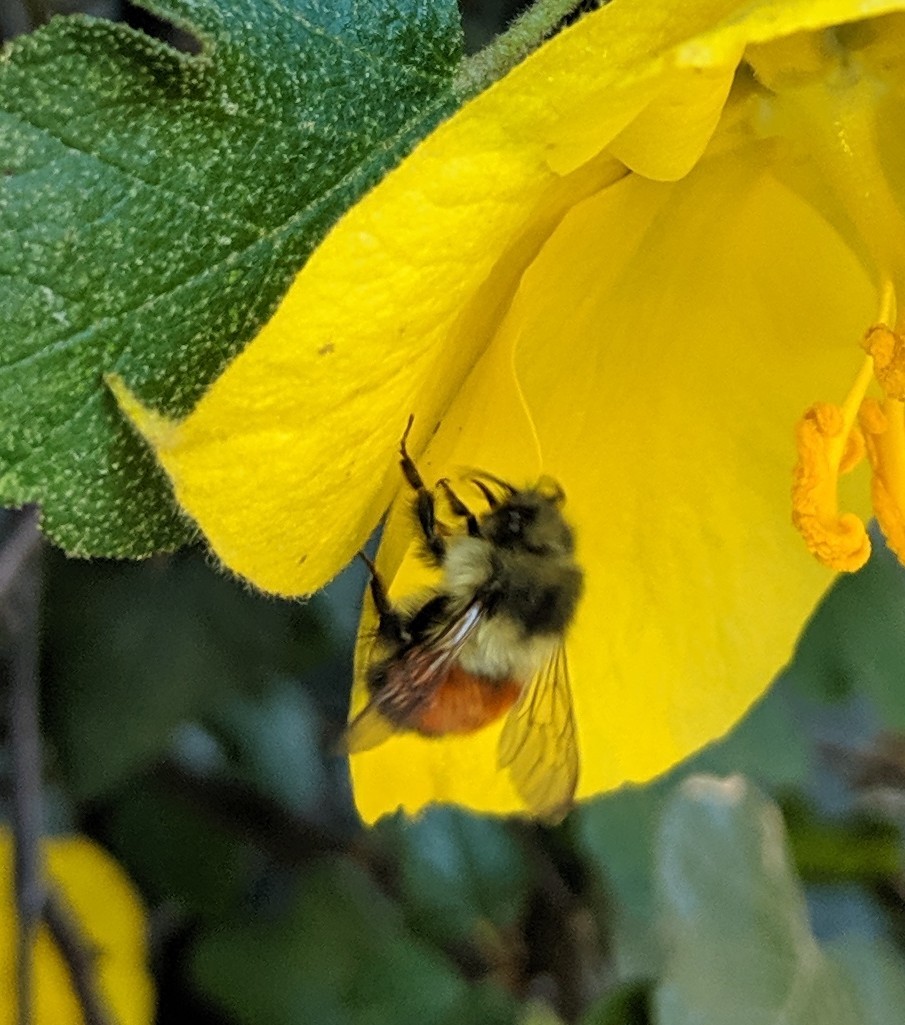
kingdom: Animalia
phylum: Arthropoda
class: Insecta
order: Hymenoptera
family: Apidae
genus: Bombus
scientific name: Bombus melanopygus
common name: Black tail bumble bee
